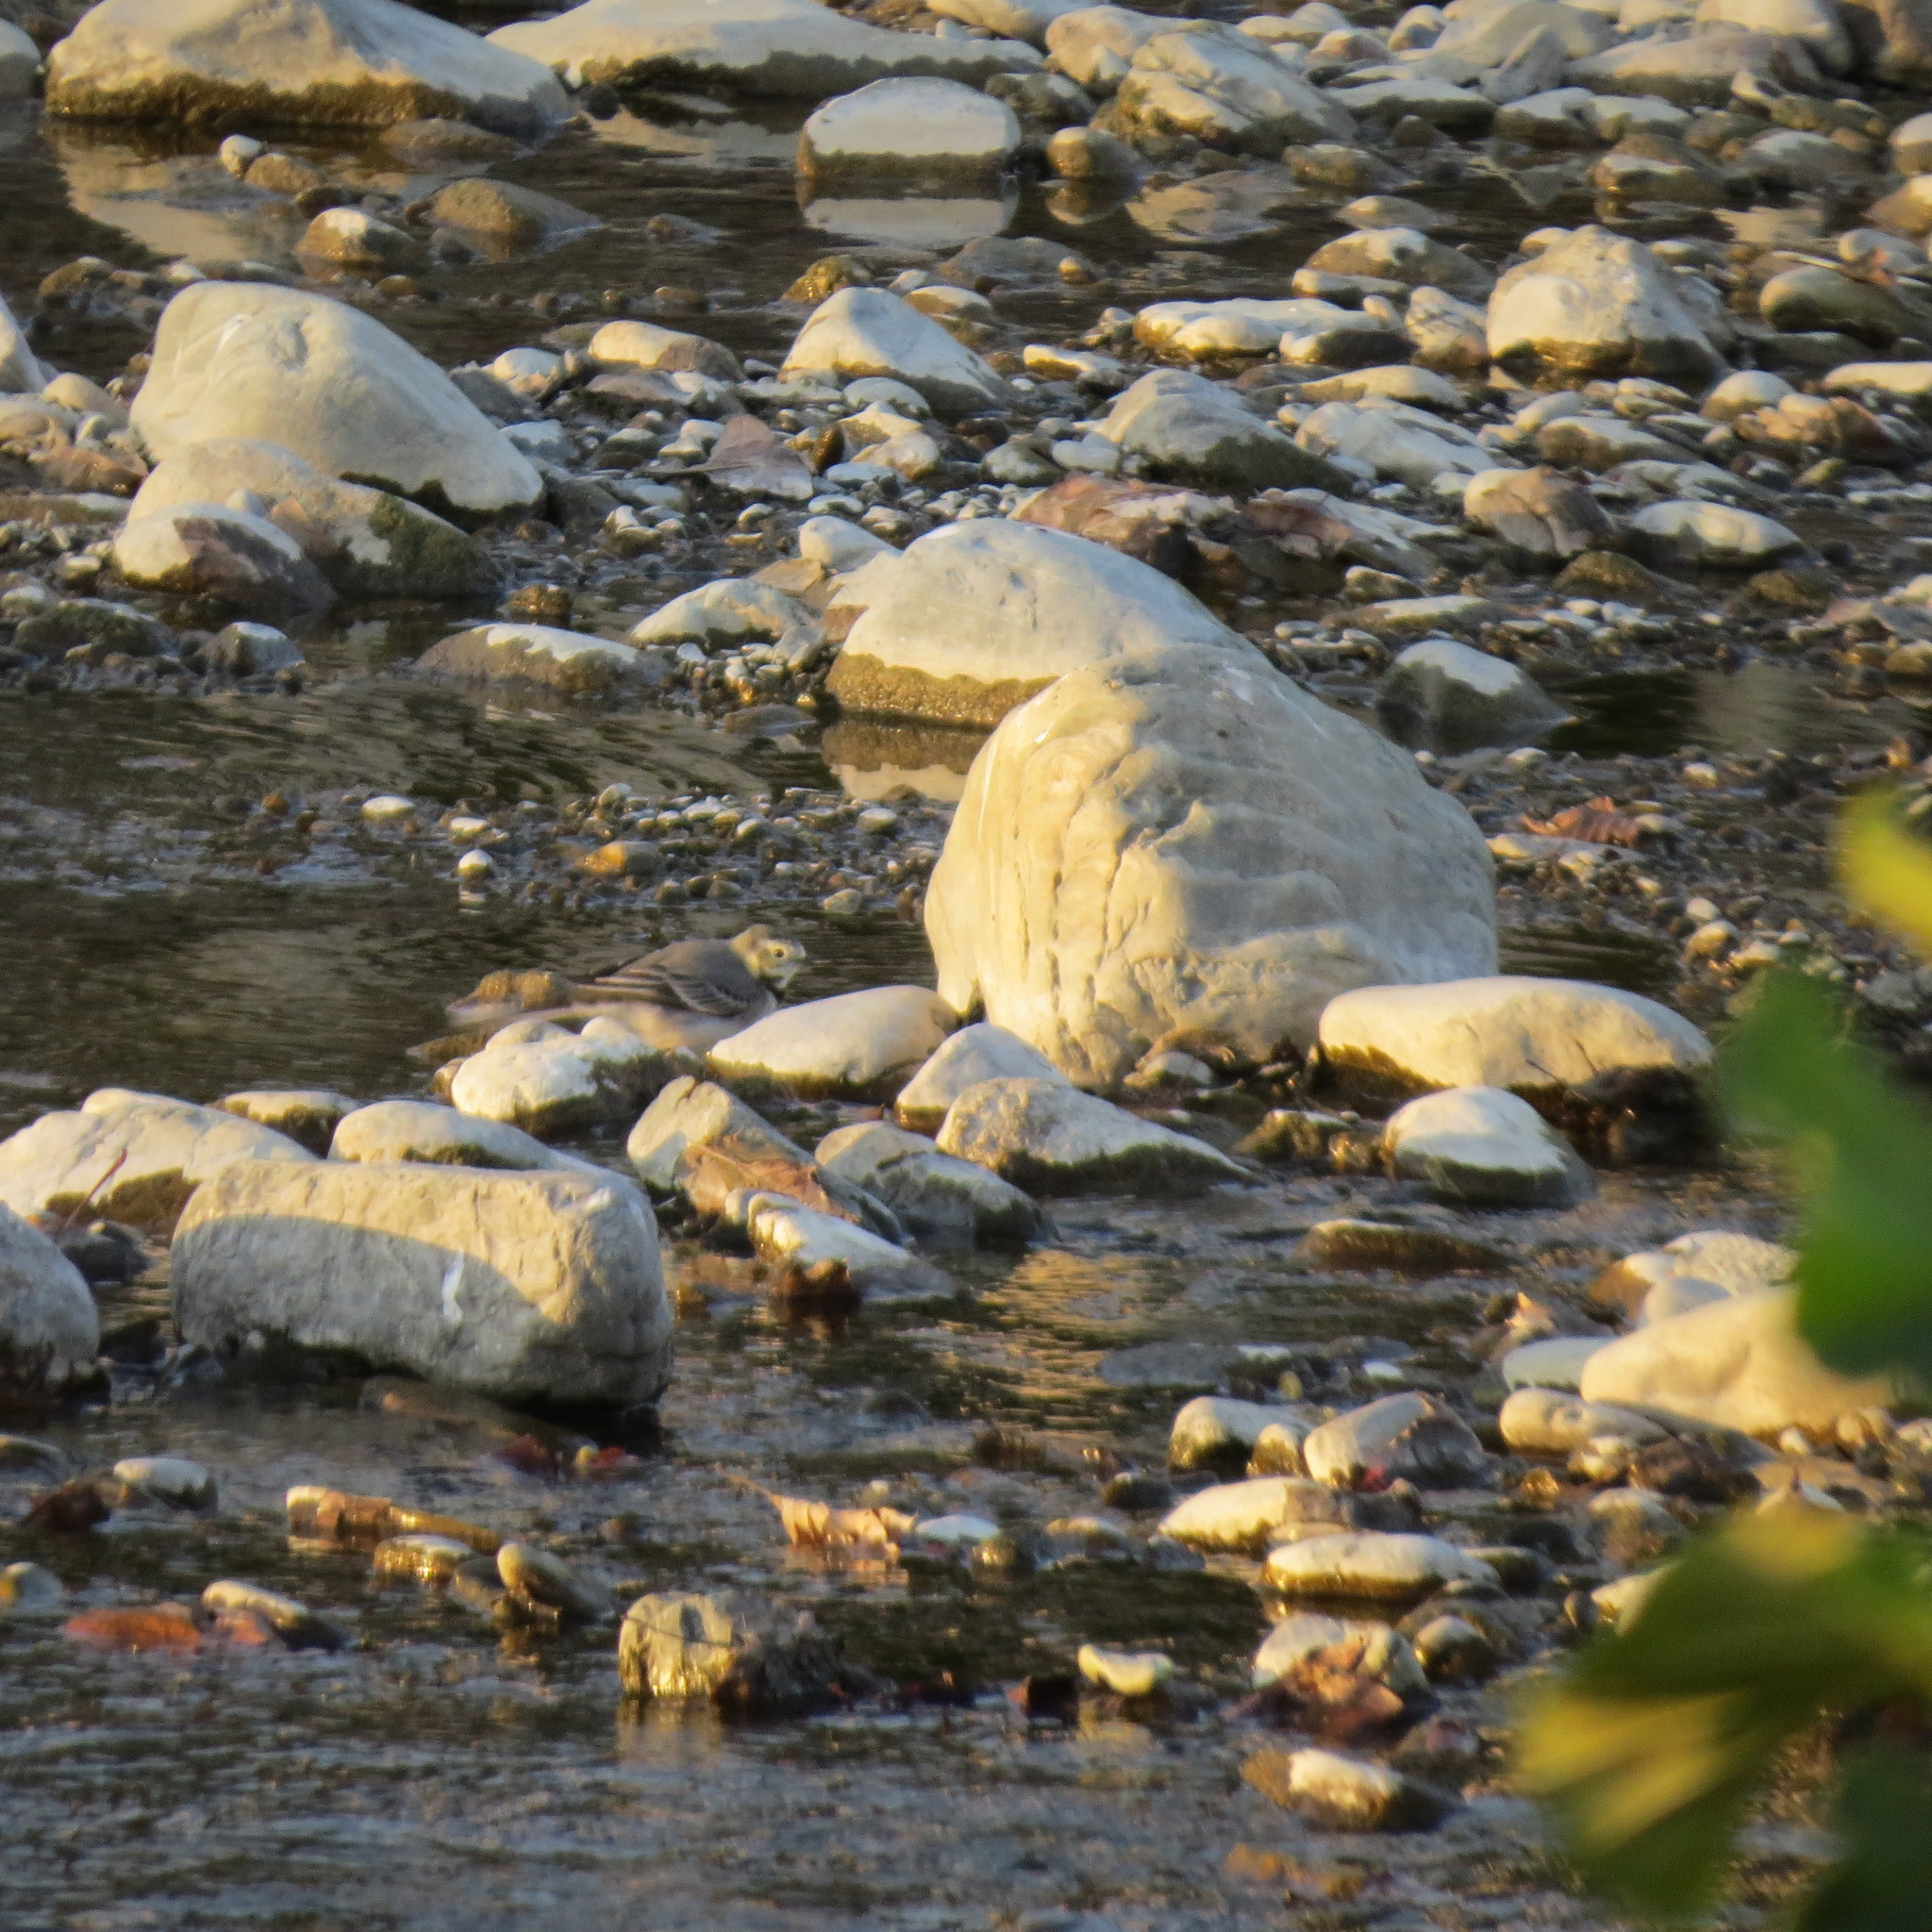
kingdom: Animalia
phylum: Chordata
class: Aves
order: Passeriformes
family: Motacillidae
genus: Motacilla
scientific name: Motacilla alba
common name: White wagtail
